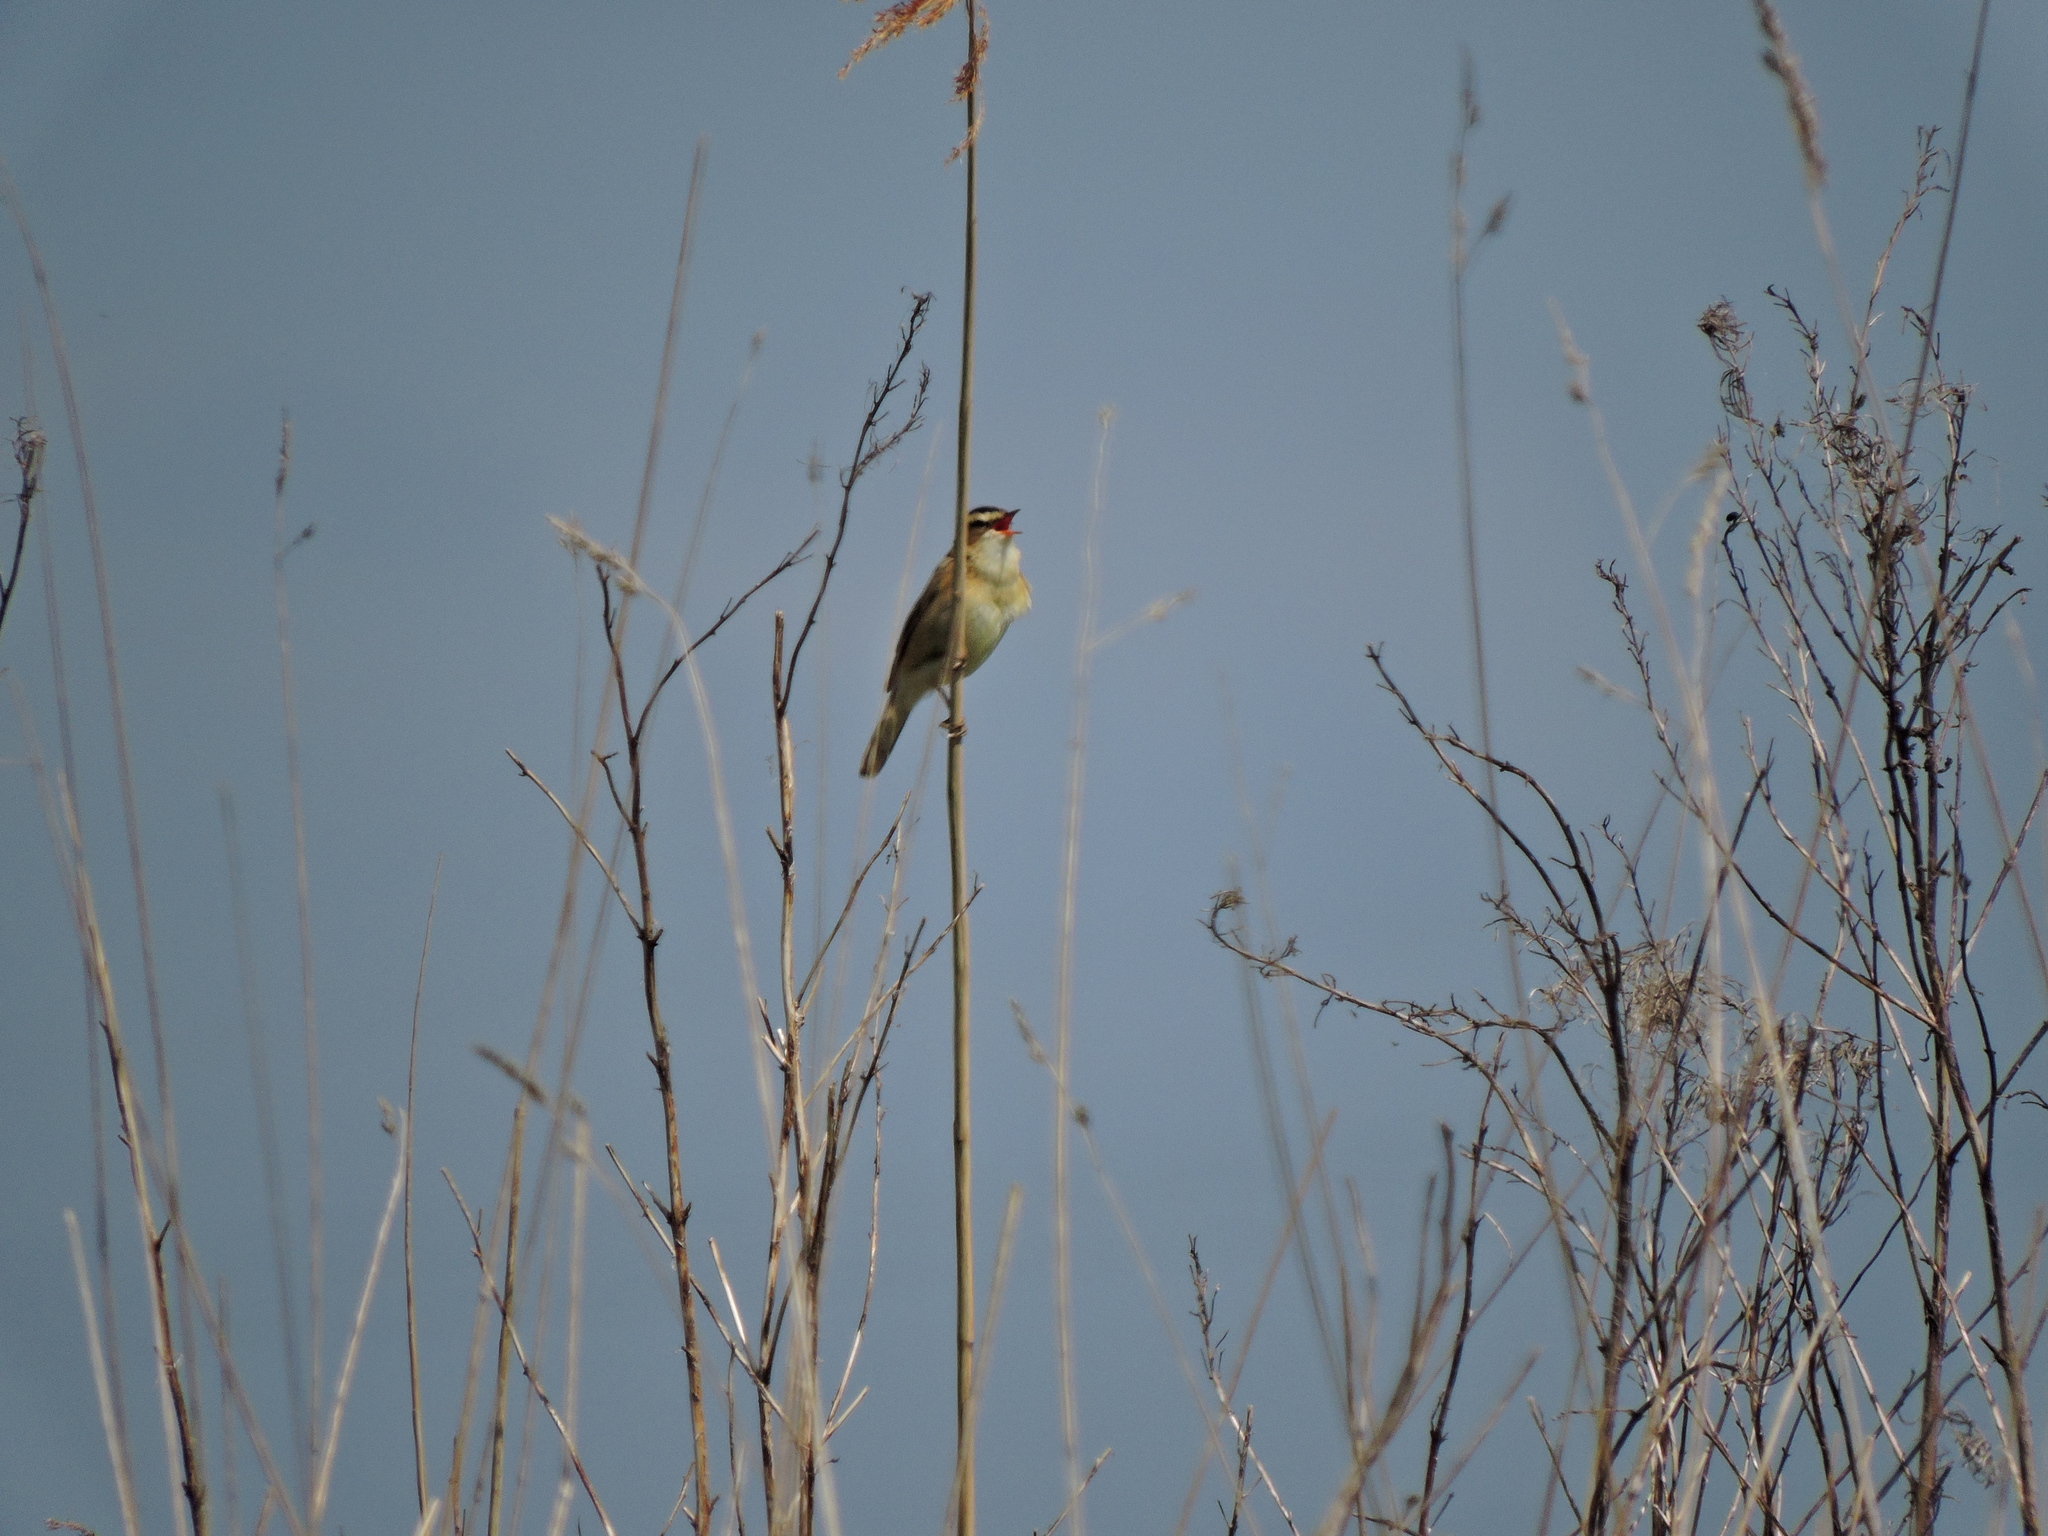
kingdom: Animalia
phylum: Chordata
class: Aves
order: Passeriformes
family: Acrocephalidae
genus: Acrocephalus
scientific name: Acrocephalus schoenobaenus
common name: Sedge warbler
